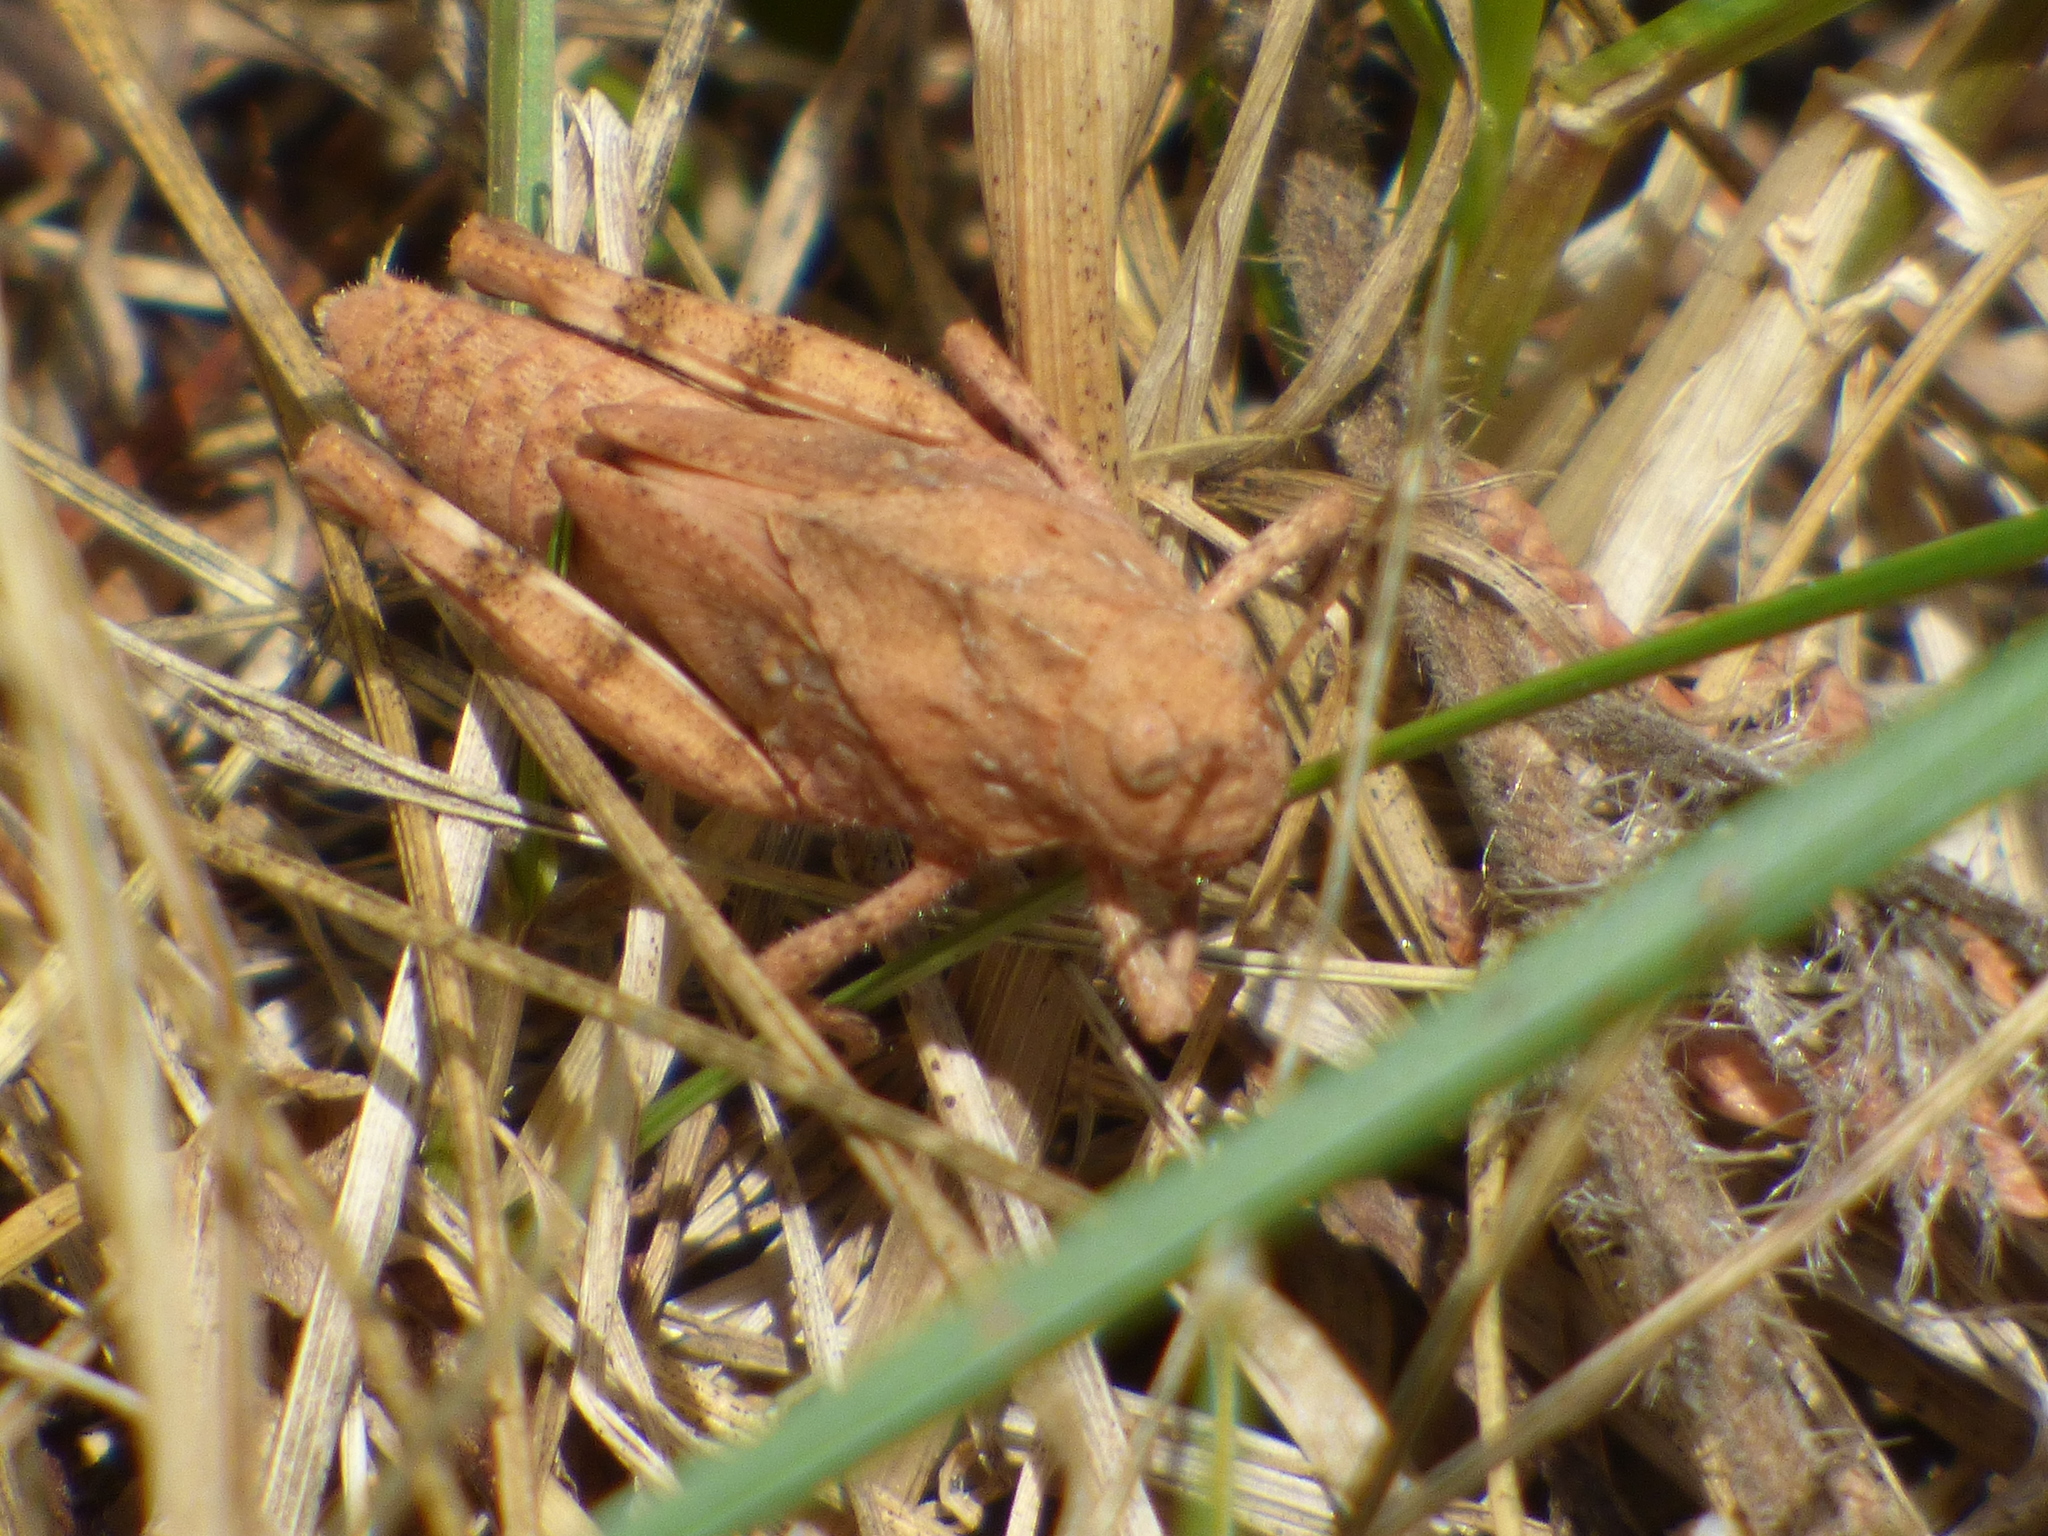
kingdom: Animalia
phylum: Arthropoda
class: Insecta
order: Orthoptera
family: Acrididae
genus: Dissosteira
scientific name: Dissosteira carolina
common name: Carolina grasshopper
